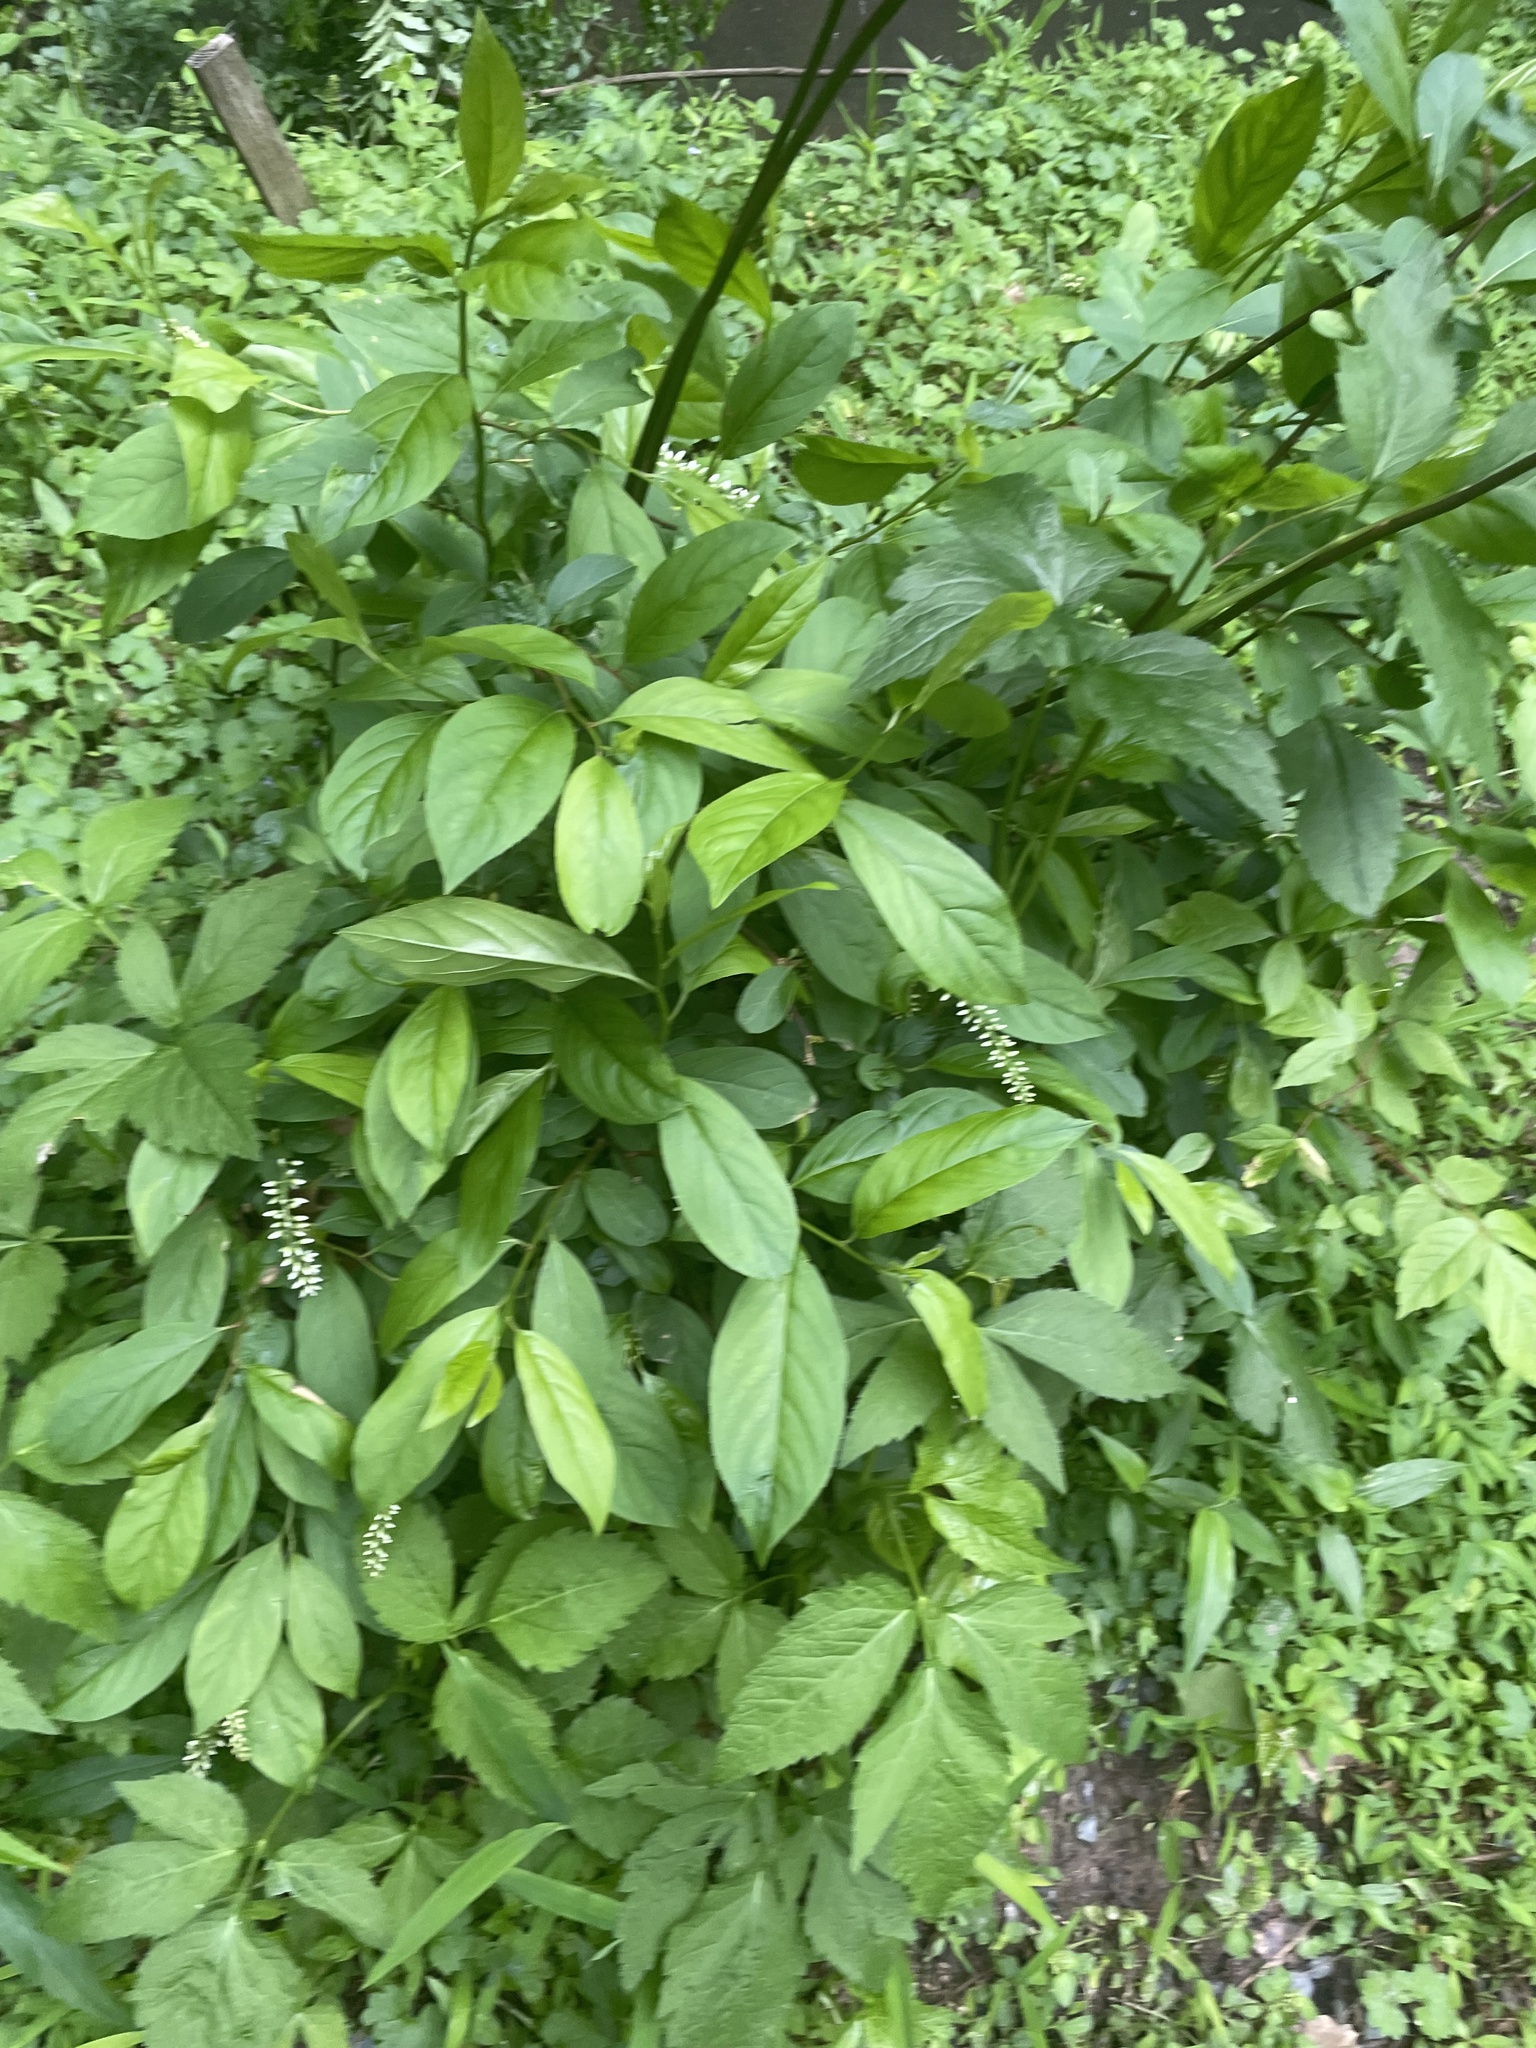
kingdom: Plantae
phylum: Tracheophyta
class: Magnoliopsida
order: Saxifragales
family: Iteaceae
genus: Itea
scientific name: Itea virginica
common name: Sweetspire
